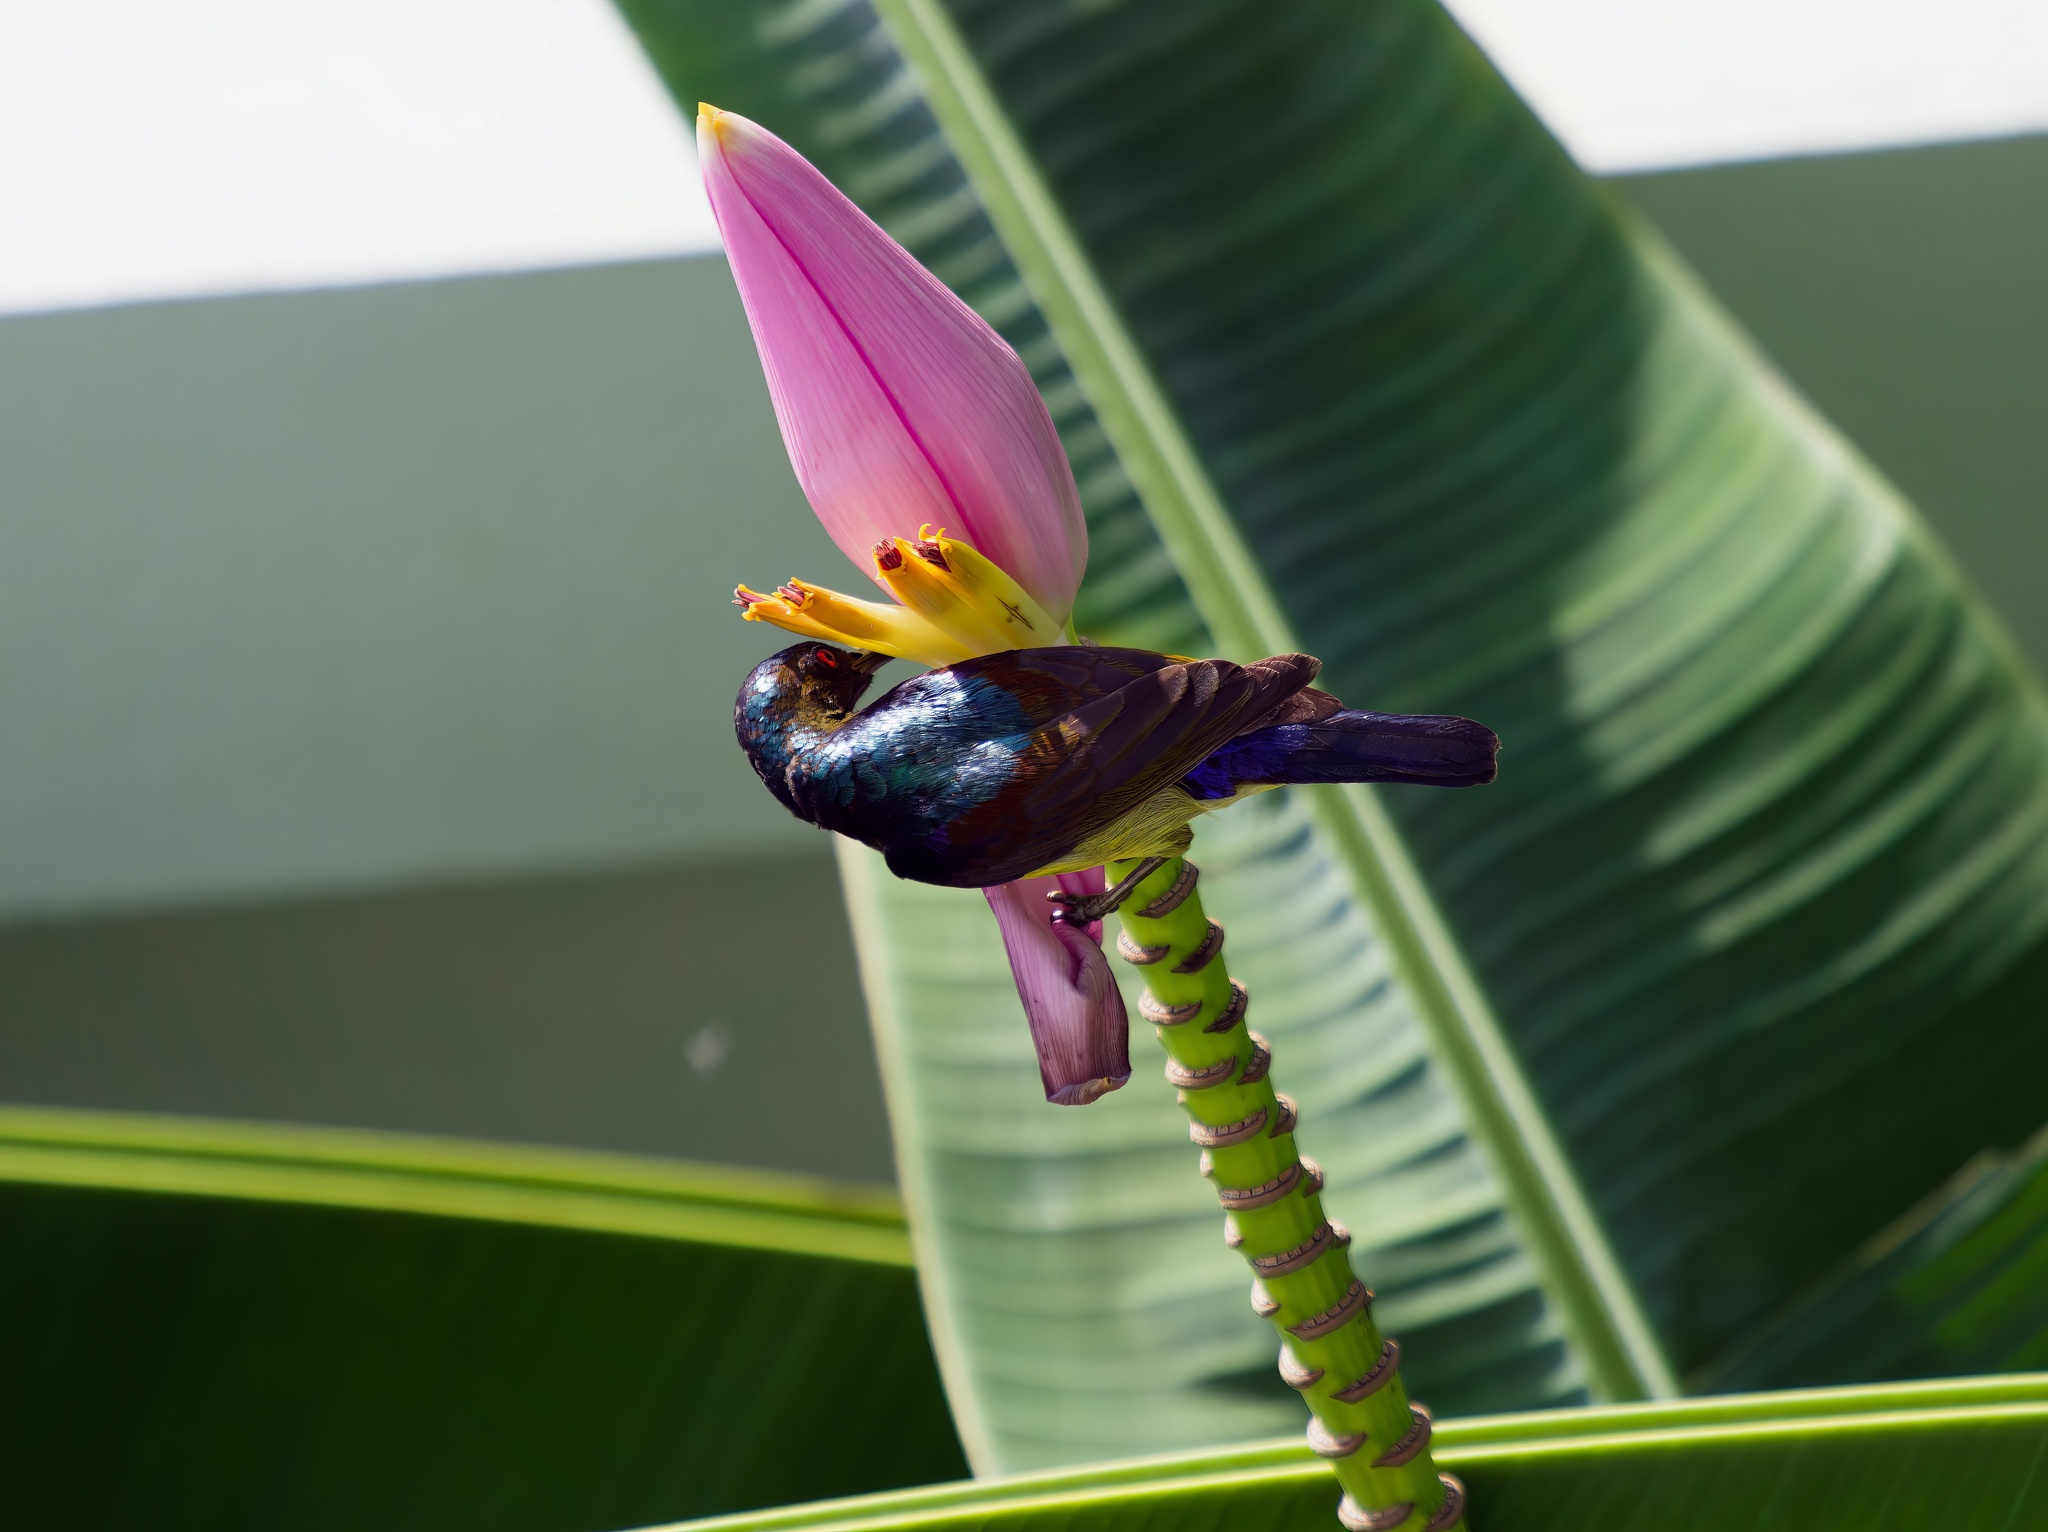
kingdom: Animalia
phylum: Chordata
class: Aves
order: Passeriformes
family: Nectariniidae
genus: Anthreptes
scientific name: Anthreptes malacensis
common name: Brown-throated sunbird
